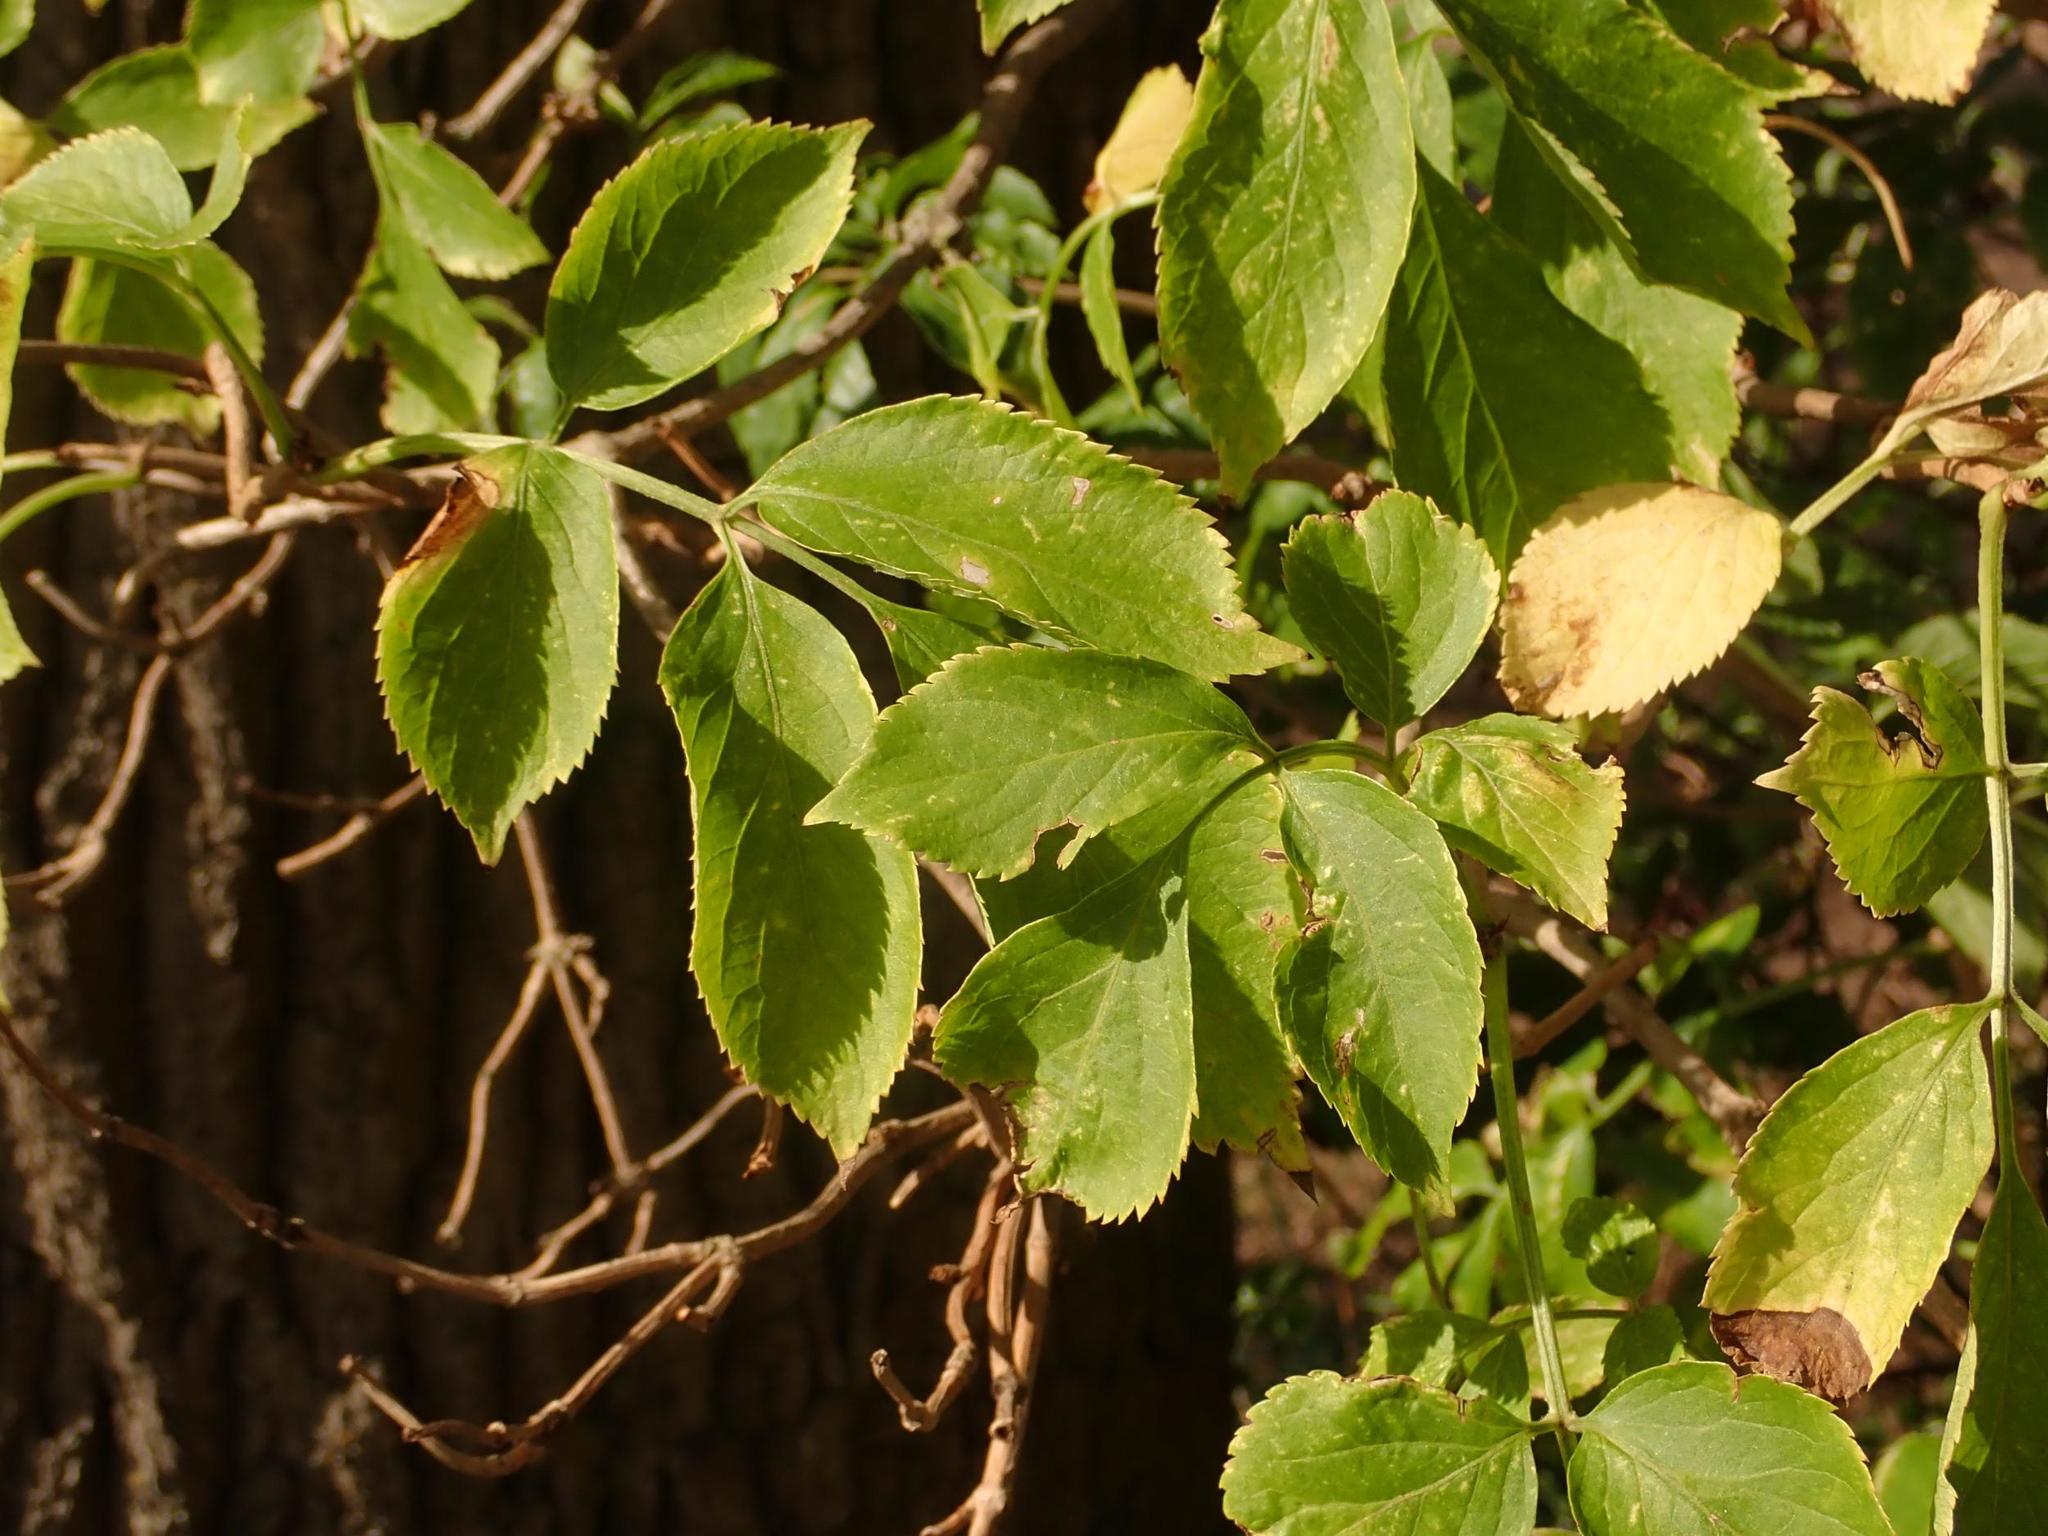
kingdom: Plantae
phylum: Tracheophyta
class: Magnoliopsida
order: Dipsacales
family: Viburnaceae
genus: Sambucus
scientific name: Sambucus nigra
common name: Elder
